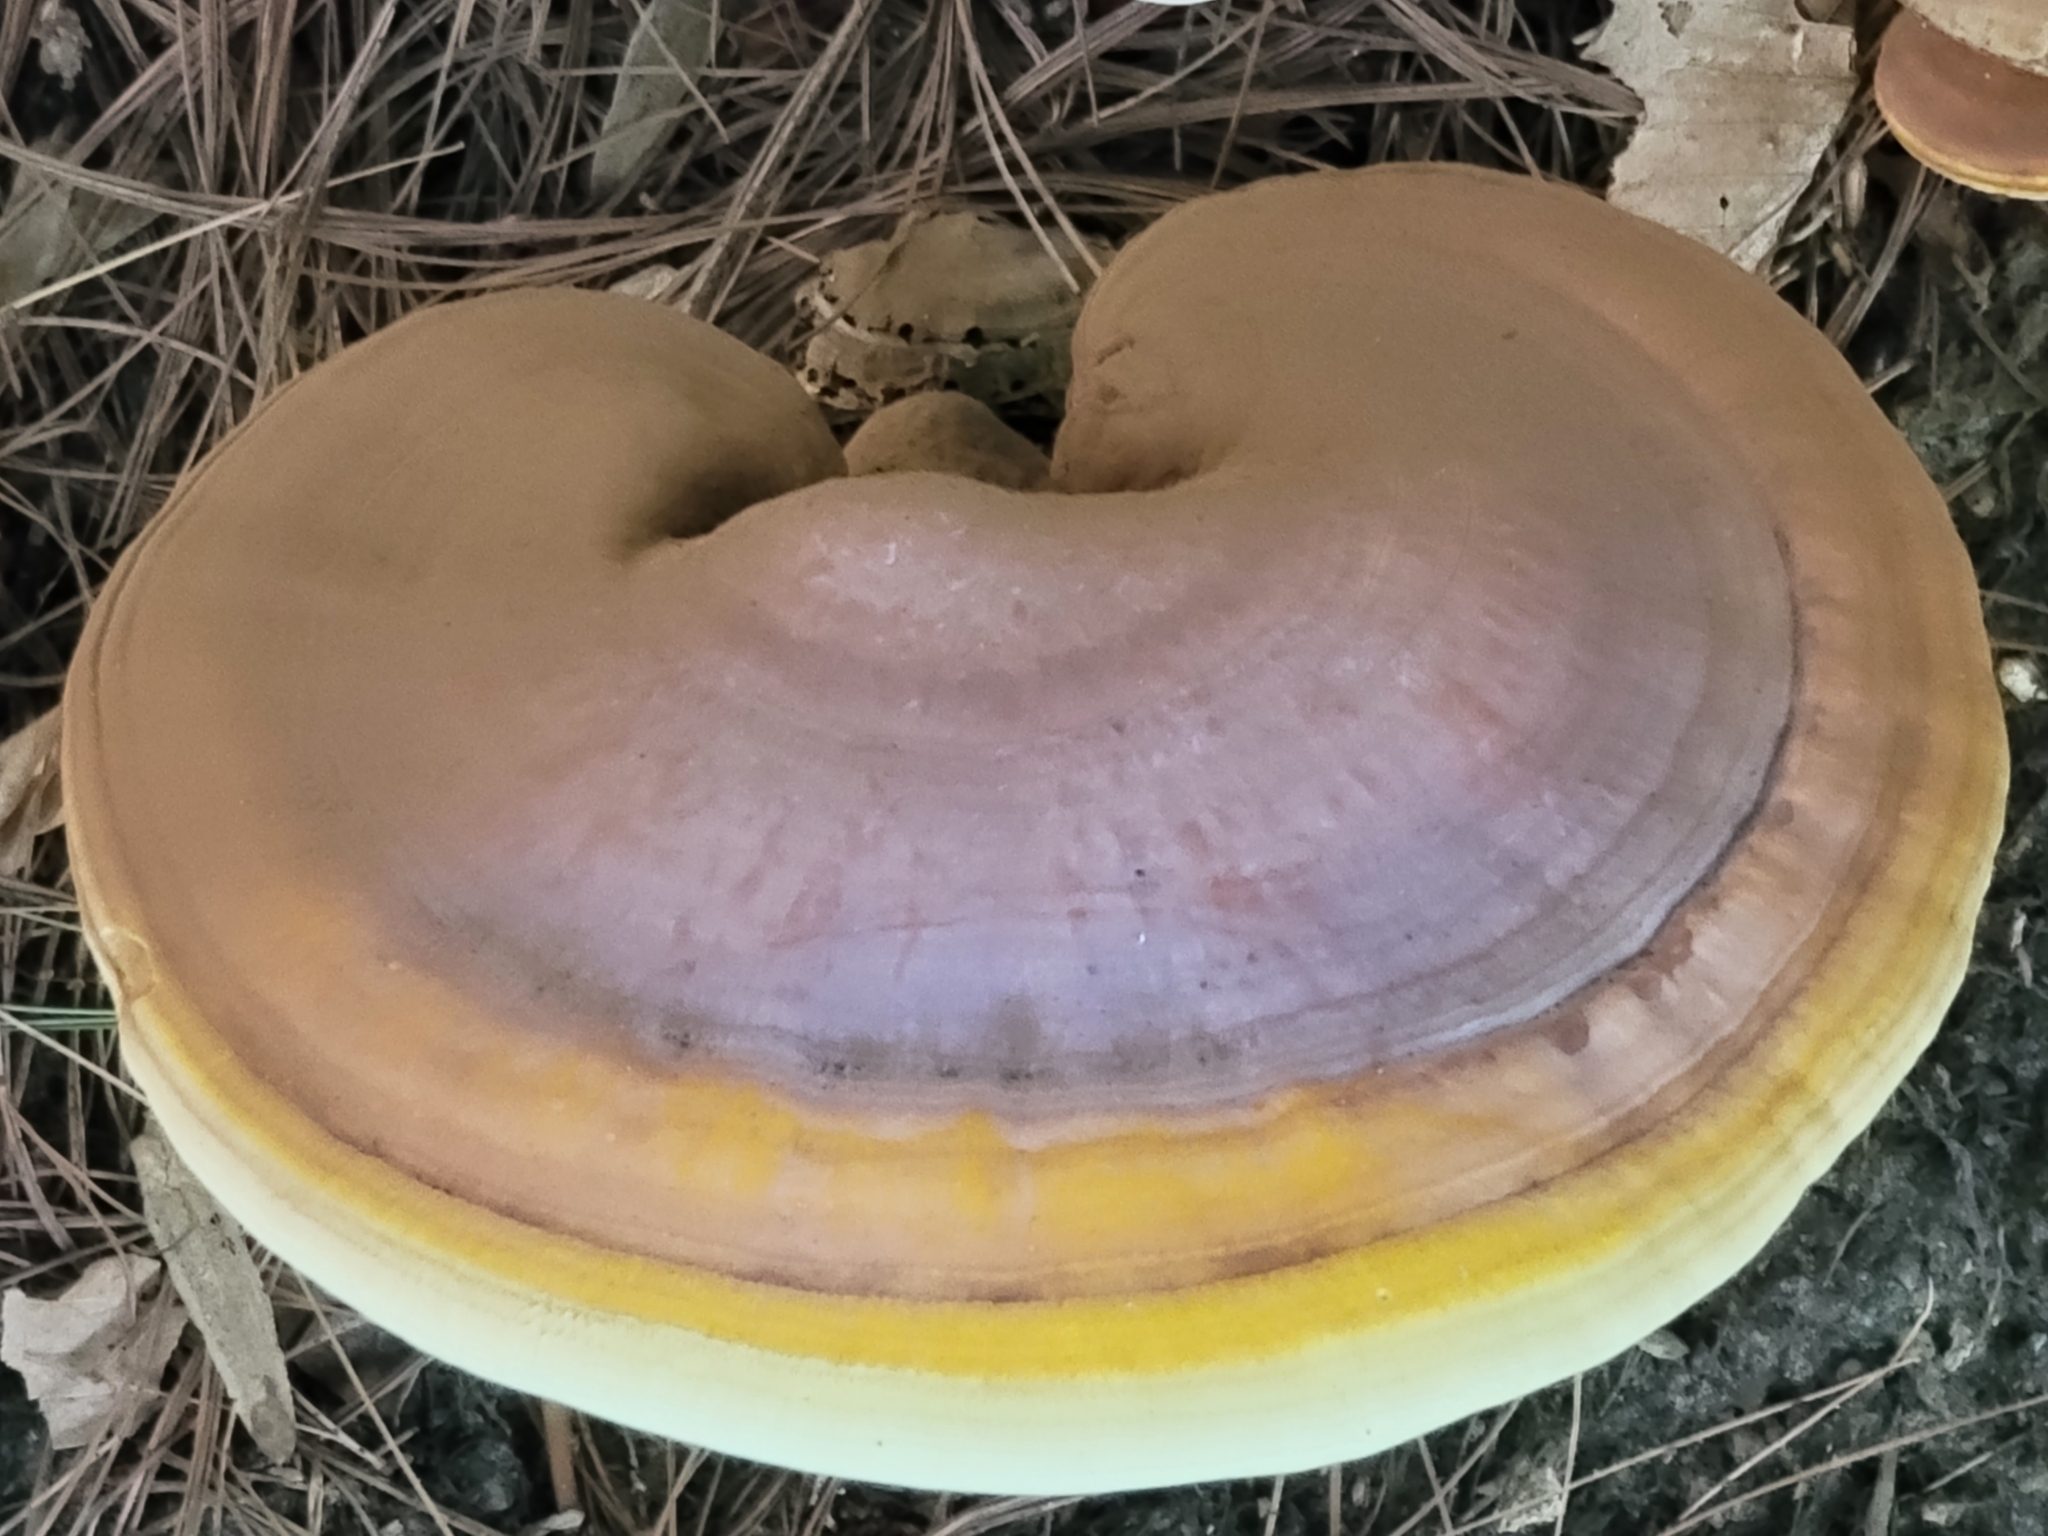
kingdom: Fungi
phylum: Basidiomycota
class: Agaricomycetes
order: Polyporales
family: Polyporaceae
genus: Ganoderma
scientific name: Ganoderma curtisii
